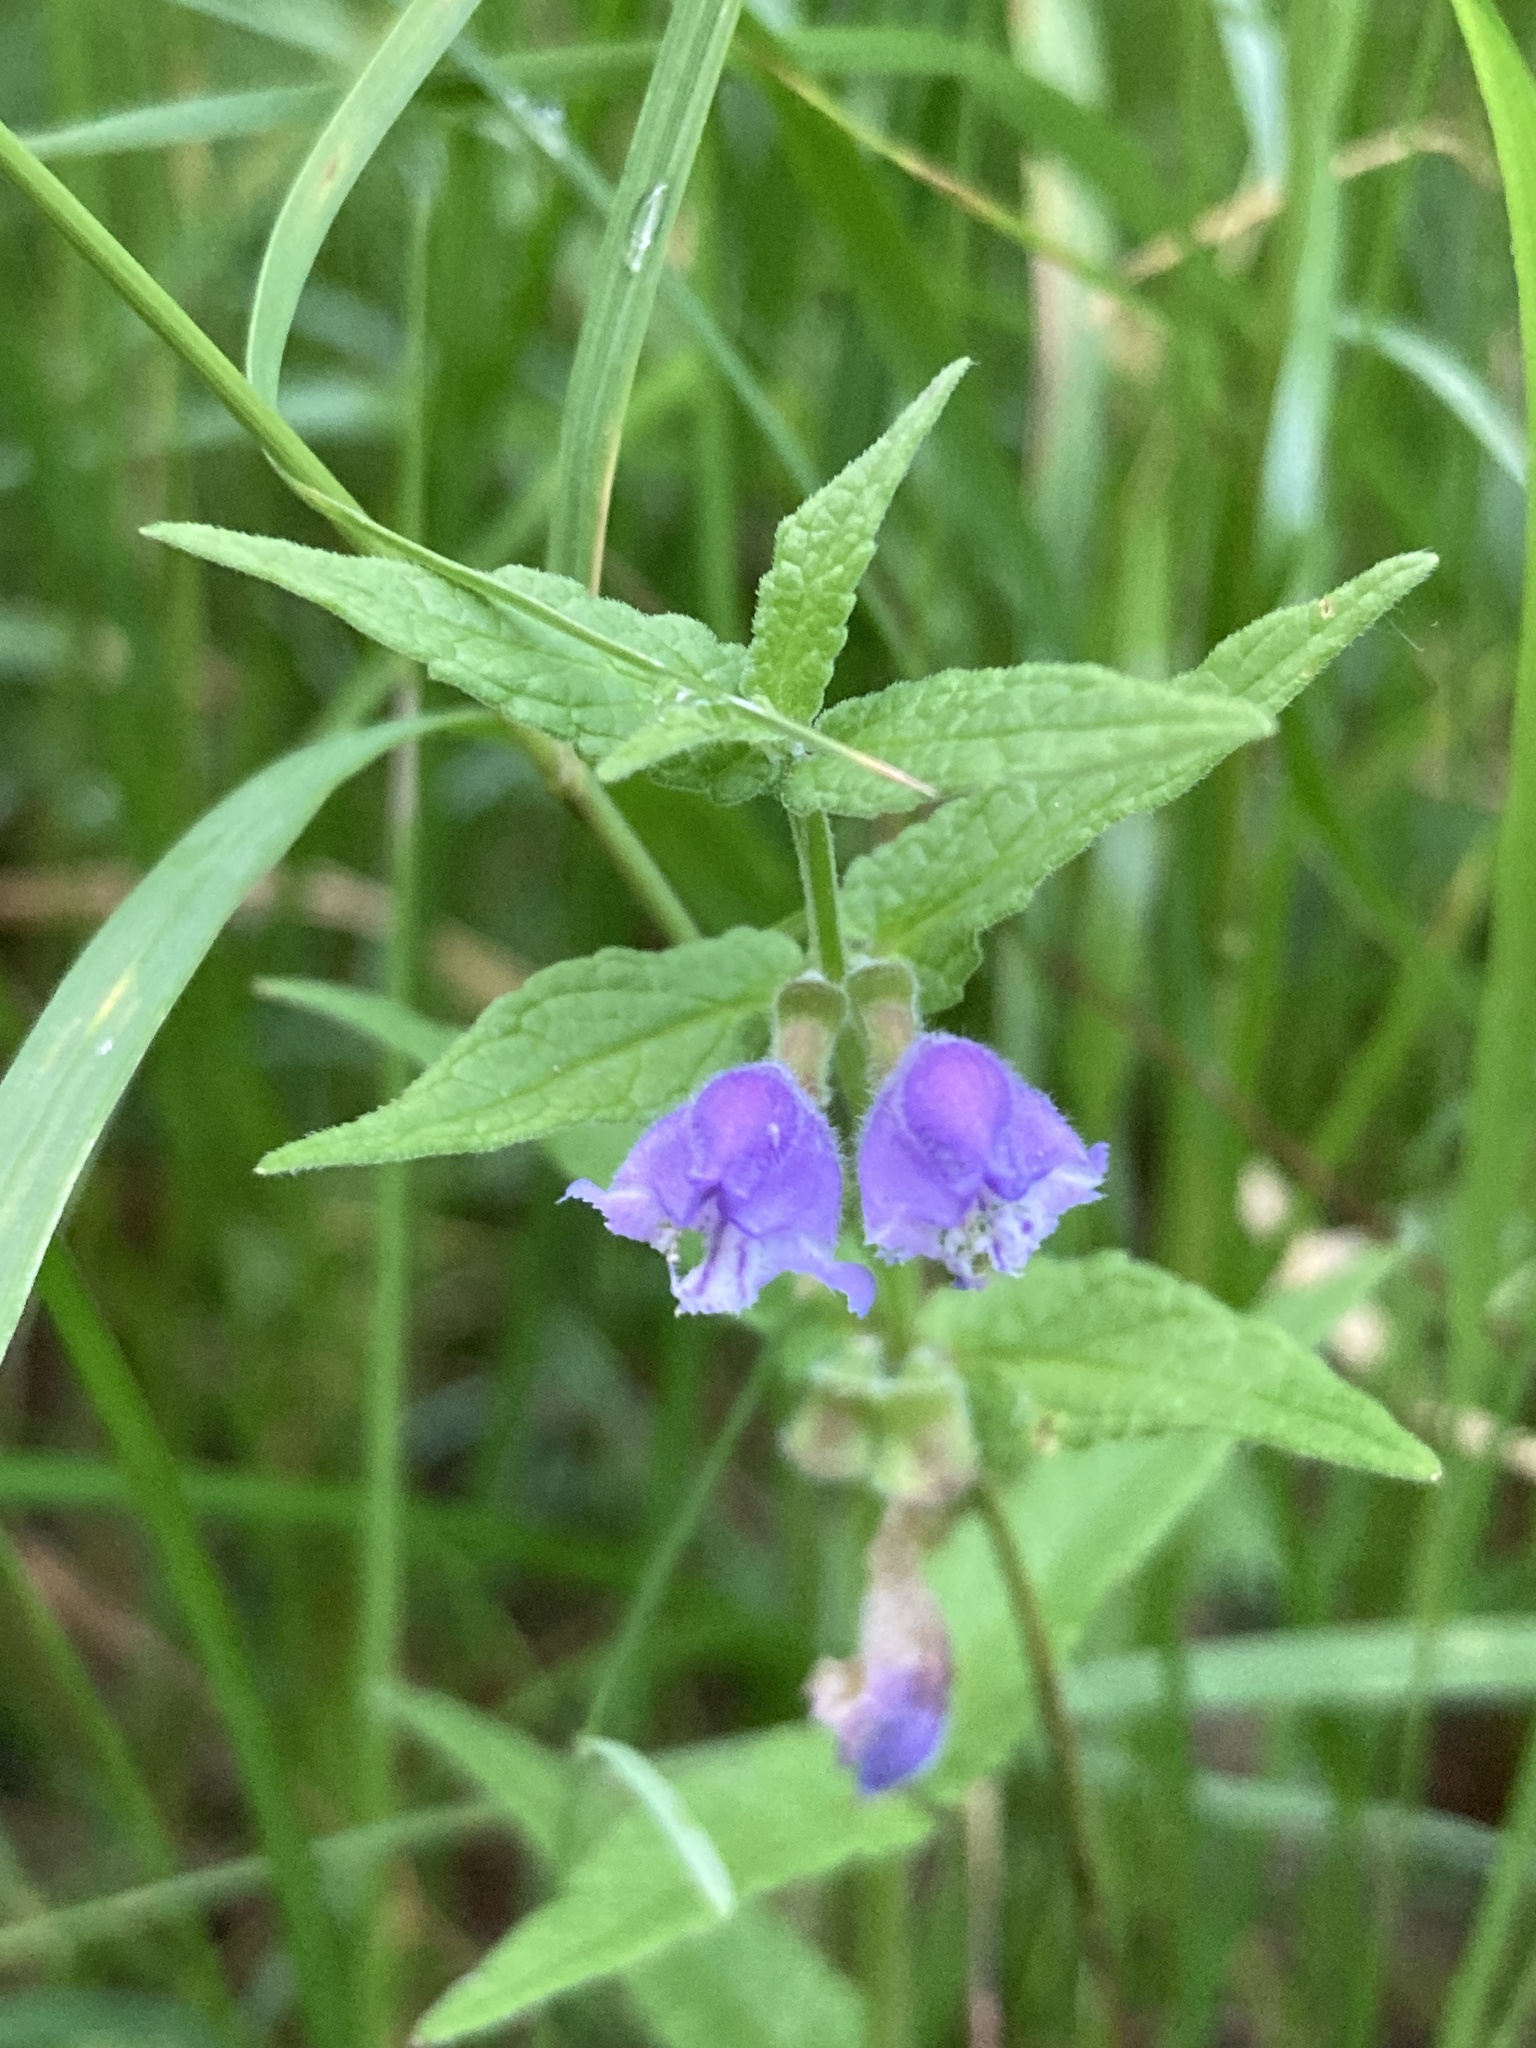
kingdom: Plantae
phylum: Tracheophyta
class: Magnoliopsida
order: Lamiales
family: Lamiaceae
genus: Scutellaria
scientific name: Scutellaria galericulata
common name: Skullcap
